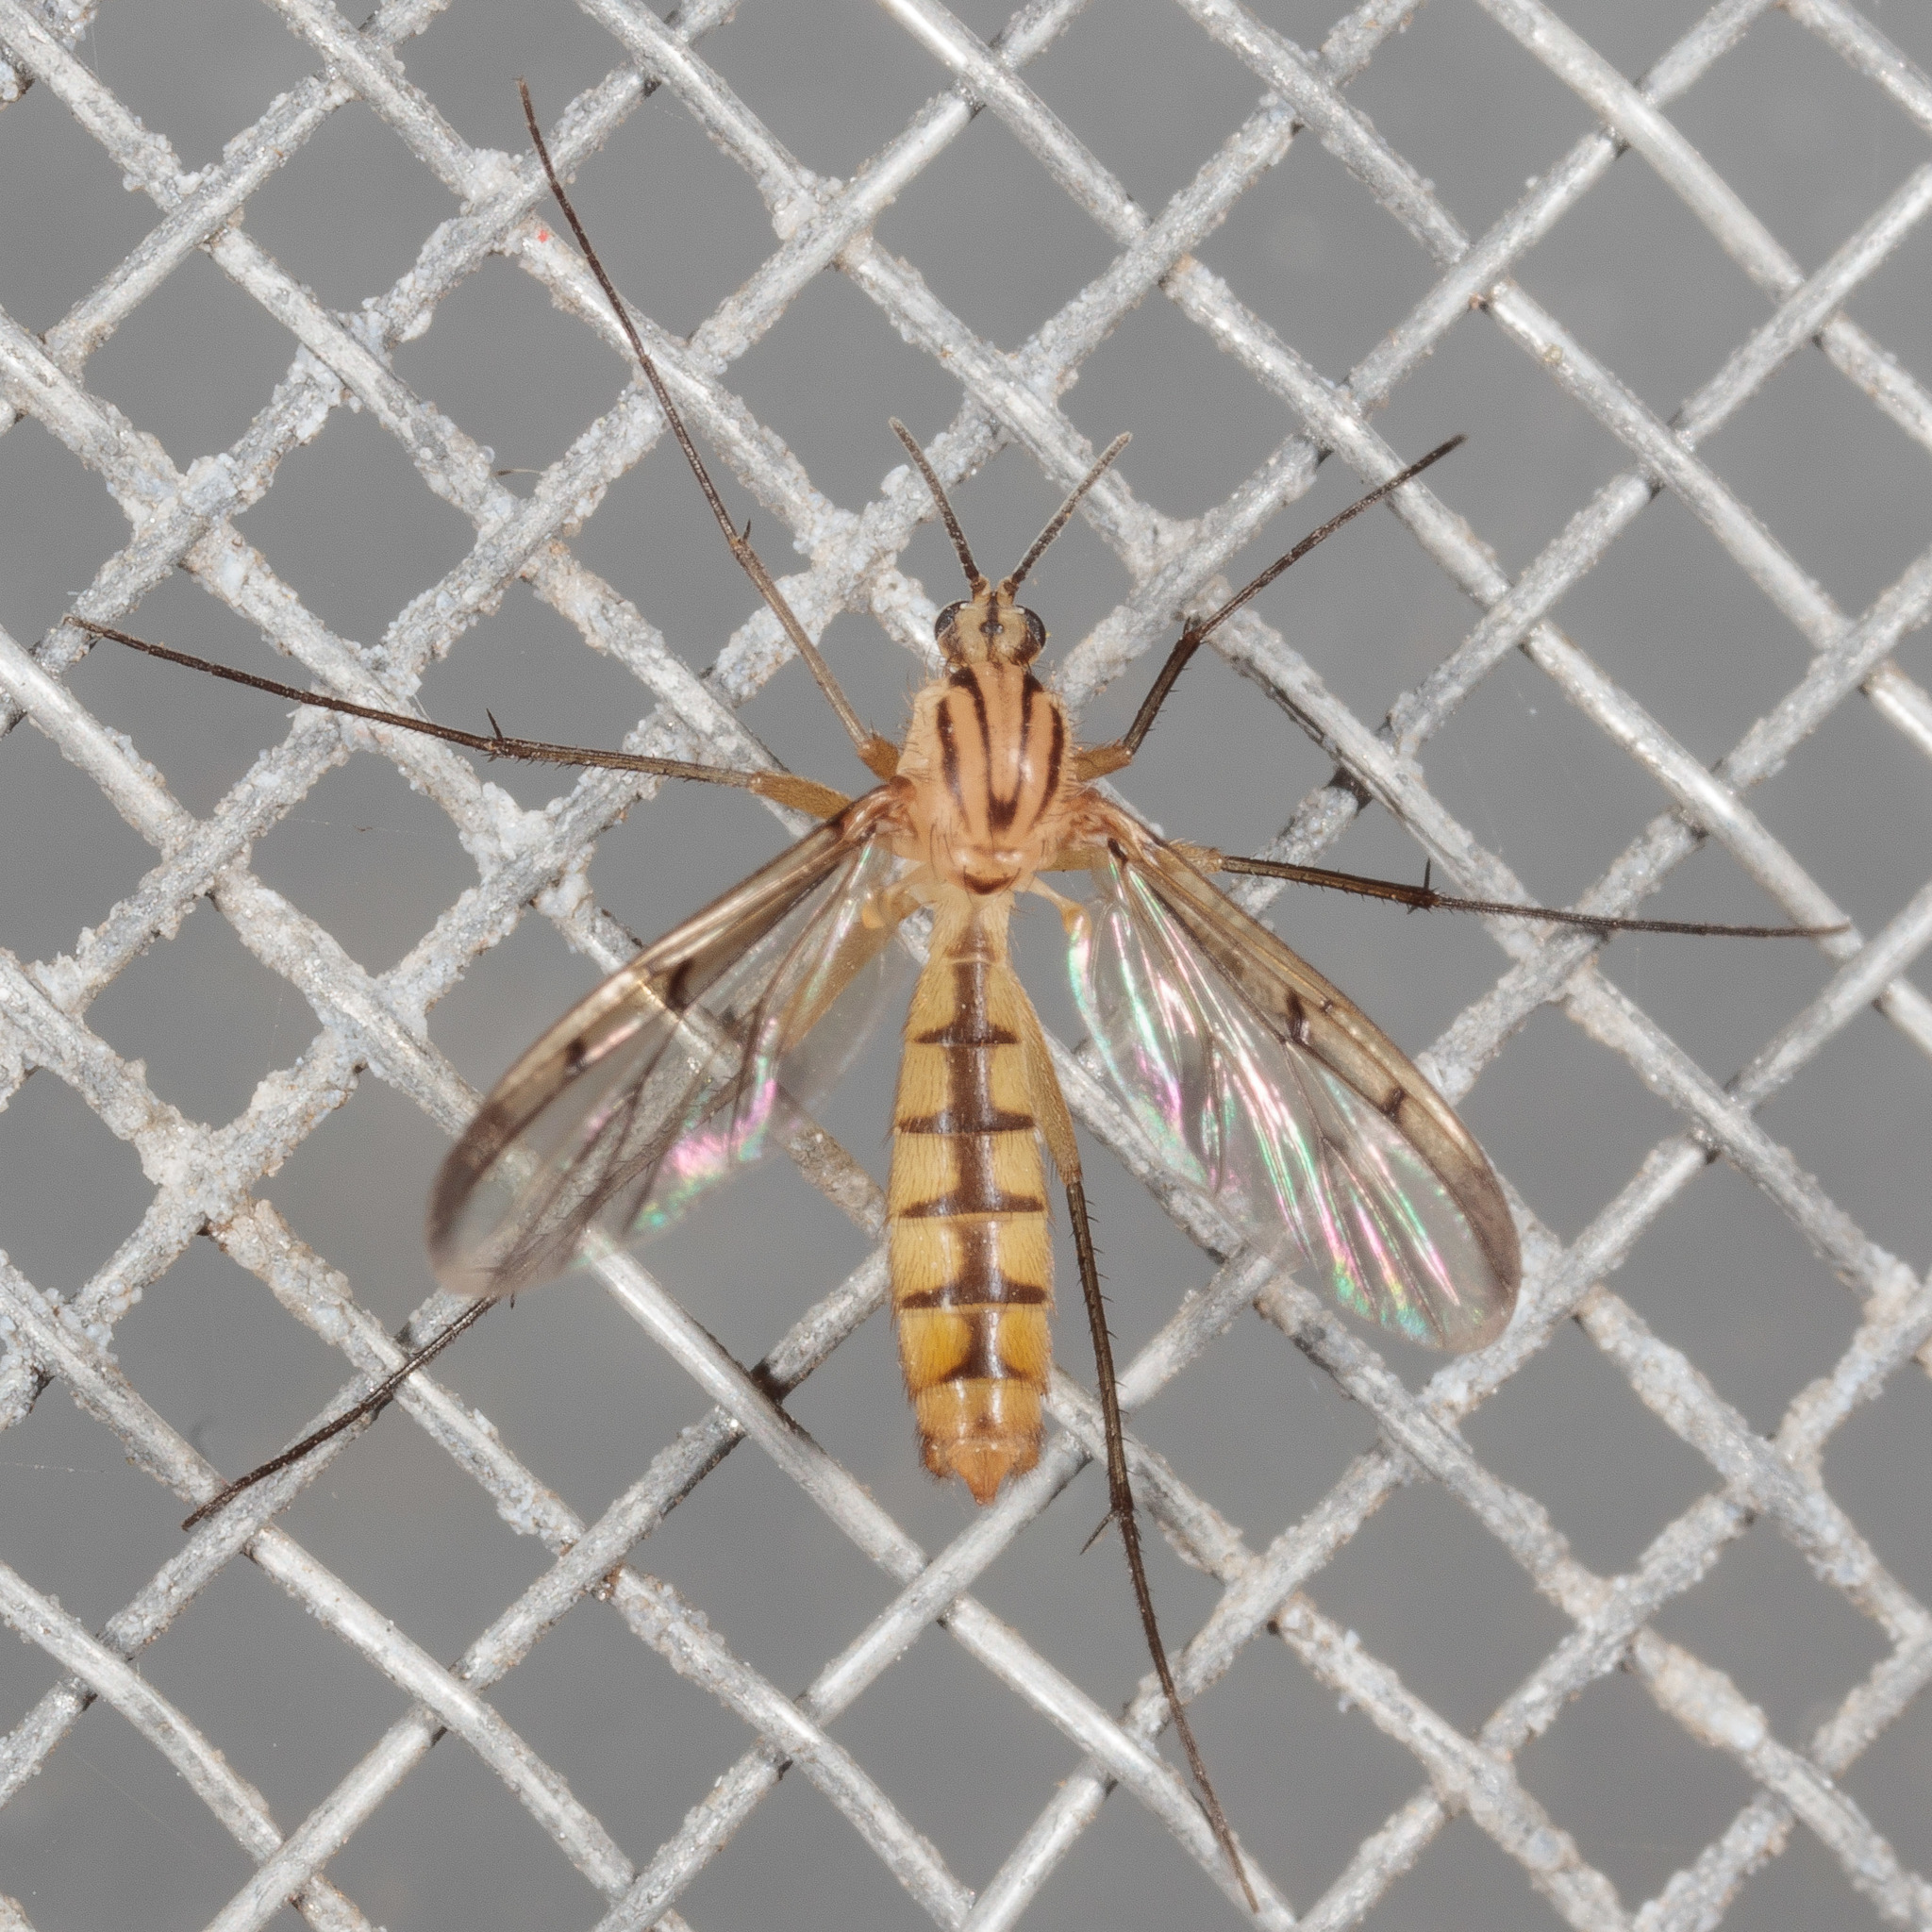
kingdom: Animalia
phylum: Arthropoda
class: Insecta
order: Diptera
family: Mycetophilidae
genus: Neoempheria
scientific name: Neoempheria balioptera
